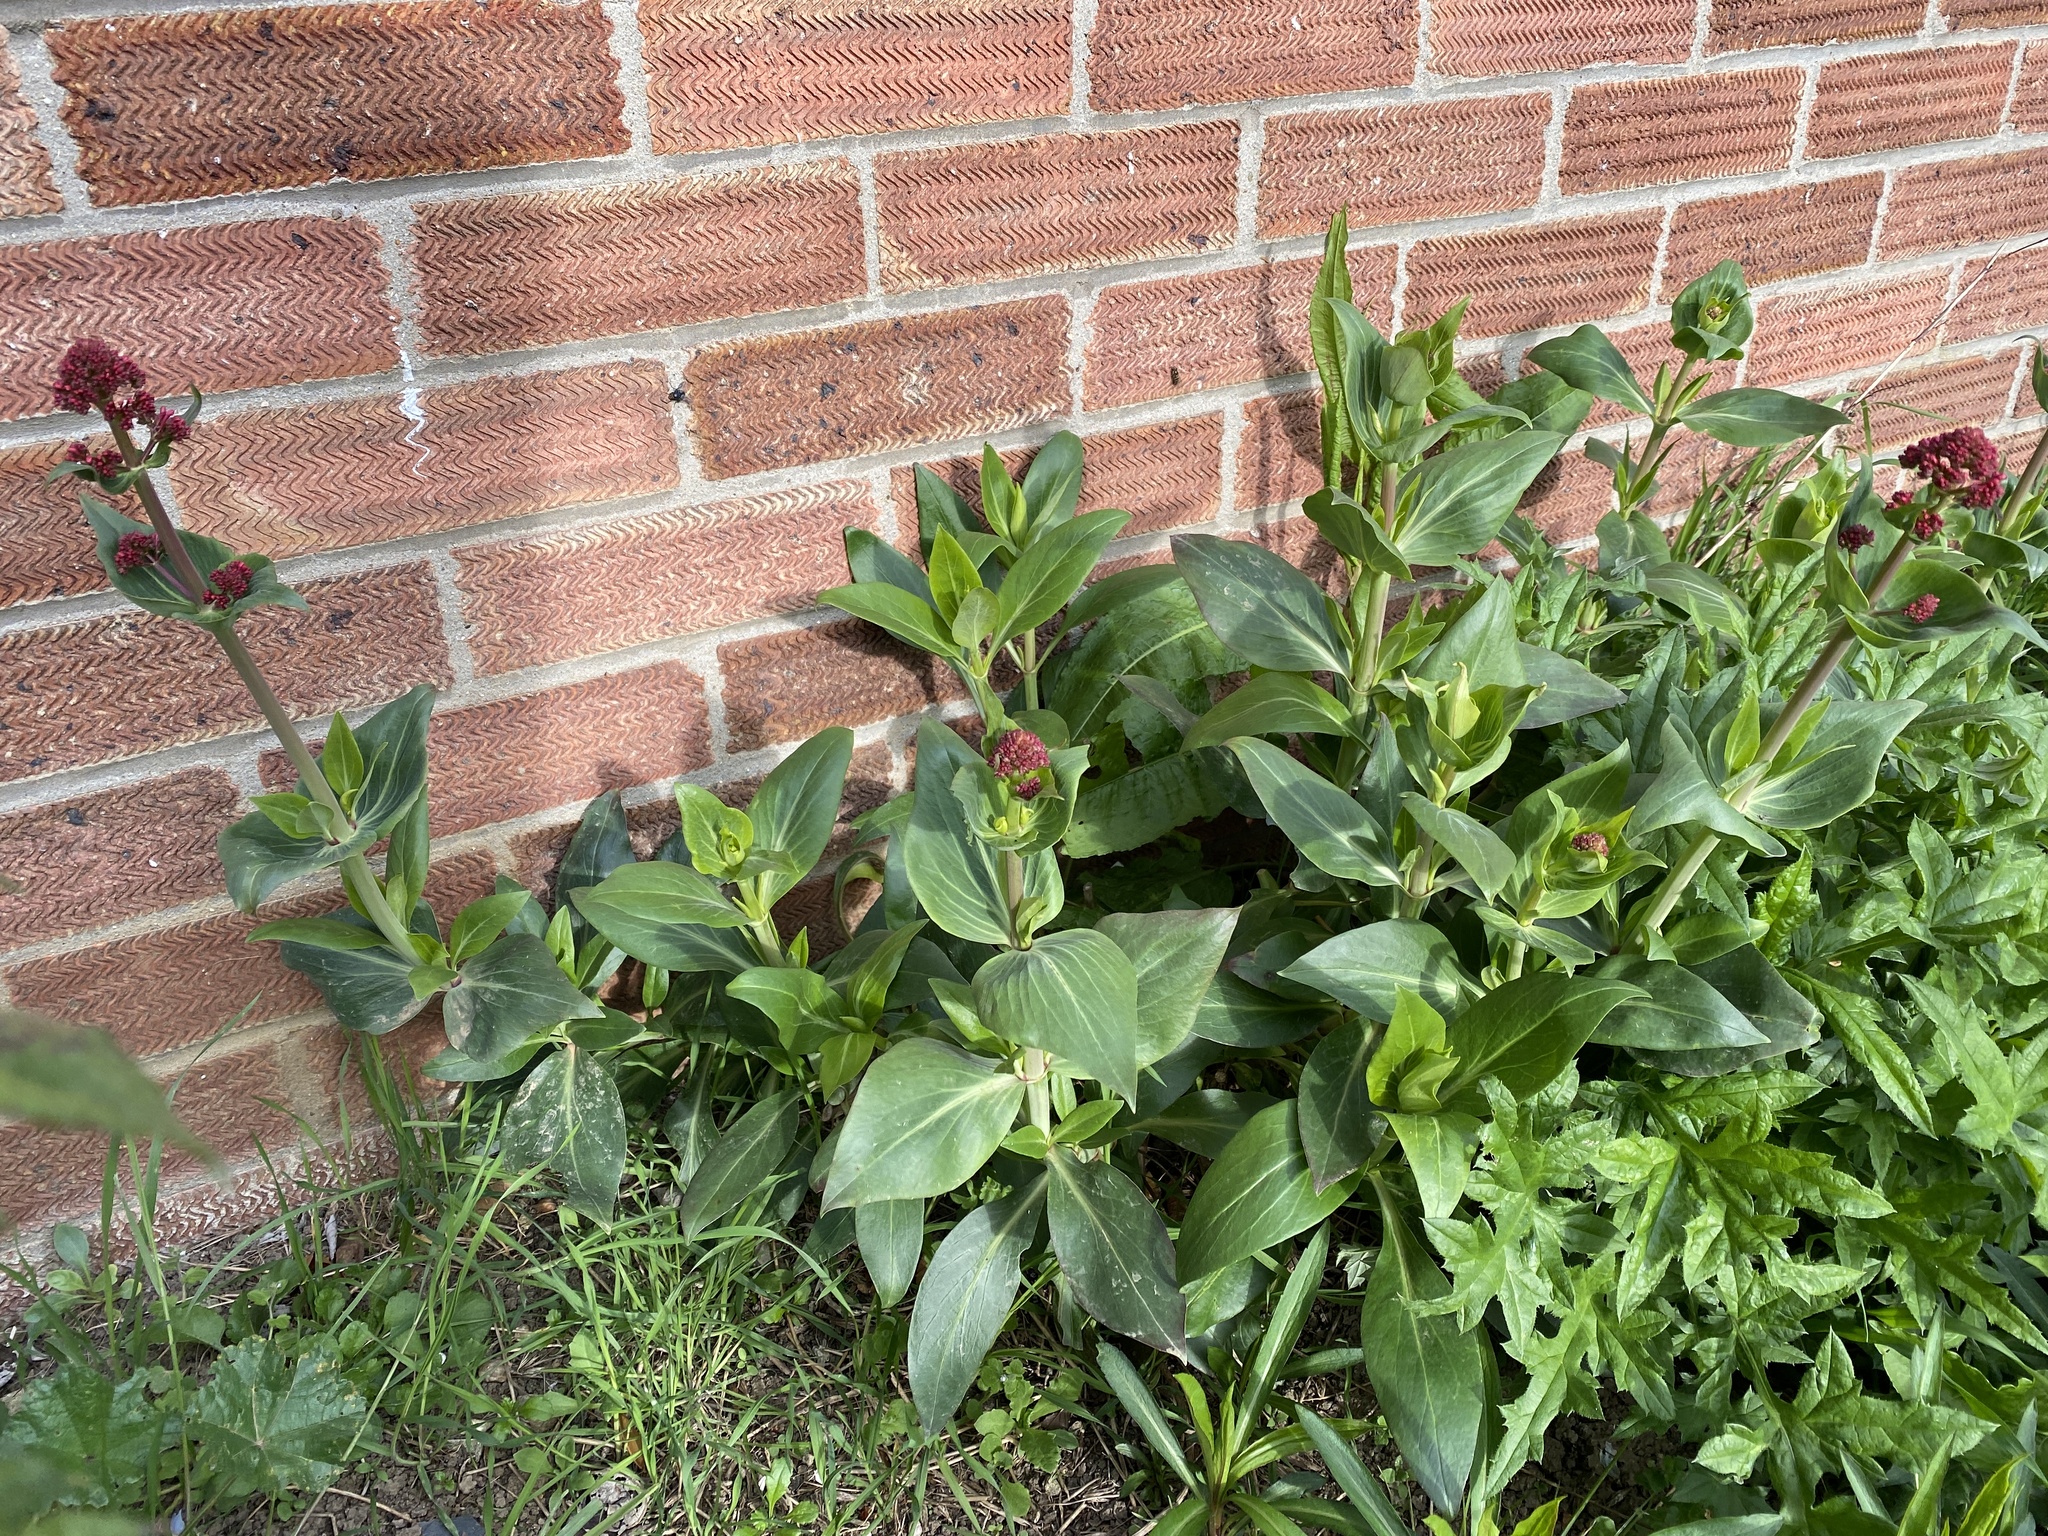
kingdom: Plantae
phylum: Tracheophyta
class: Magnoliopsida
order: Dipsacales
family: Caprifoliaceae
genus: Centranthus
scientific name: Centranthus ruber
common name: Red valerian
